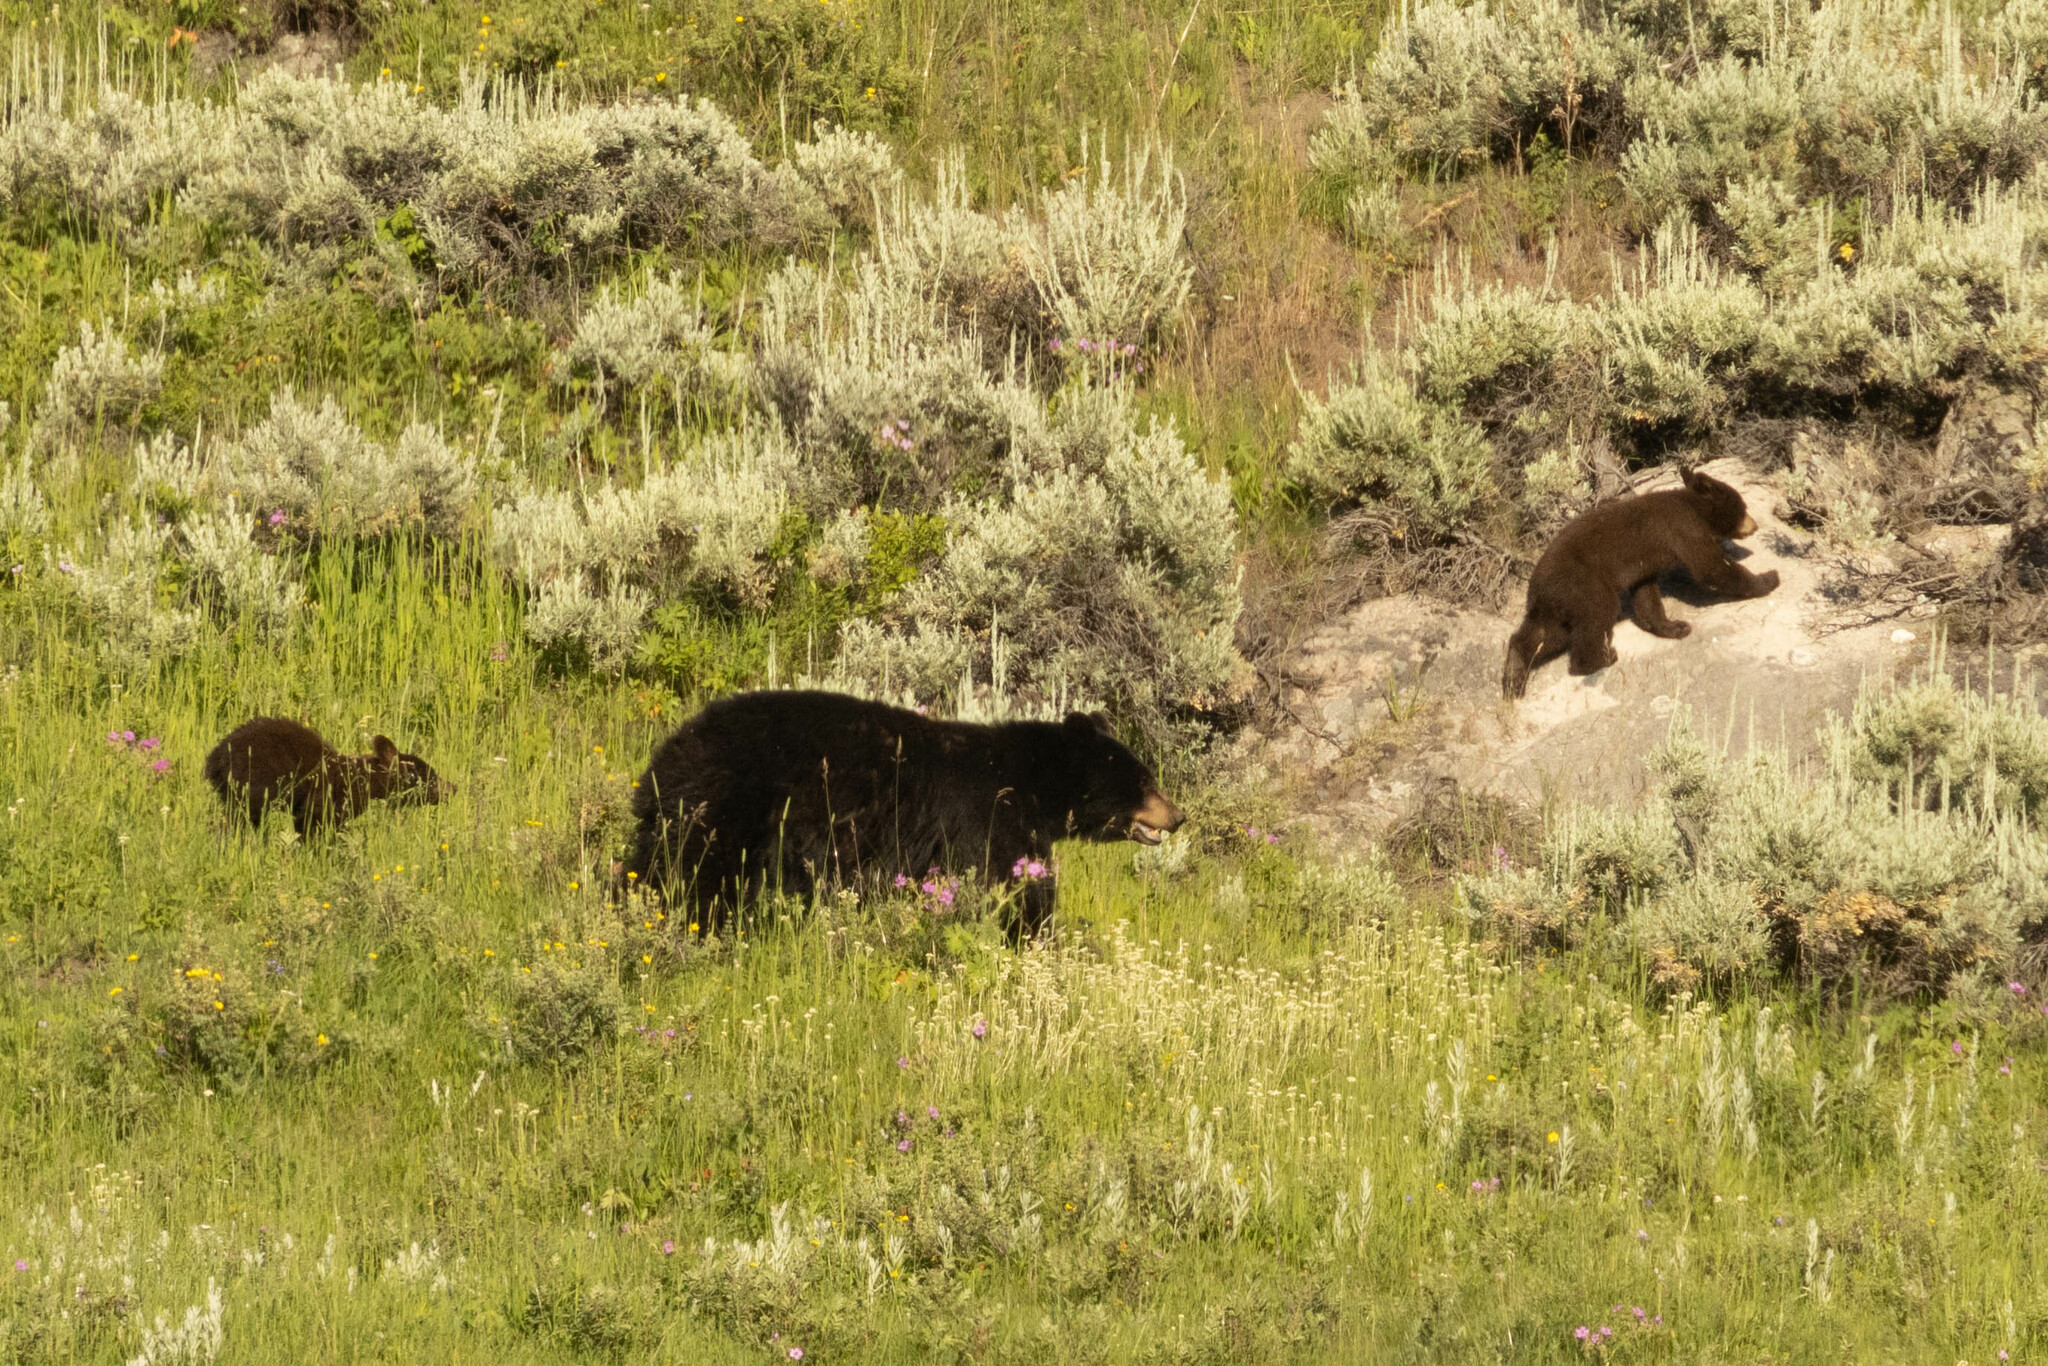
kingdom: Animalia
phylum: Chordata
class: Mammalia
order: Carnivora
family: Ursidae
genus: Ursus
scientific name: Ursus americanus
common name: American black bear
